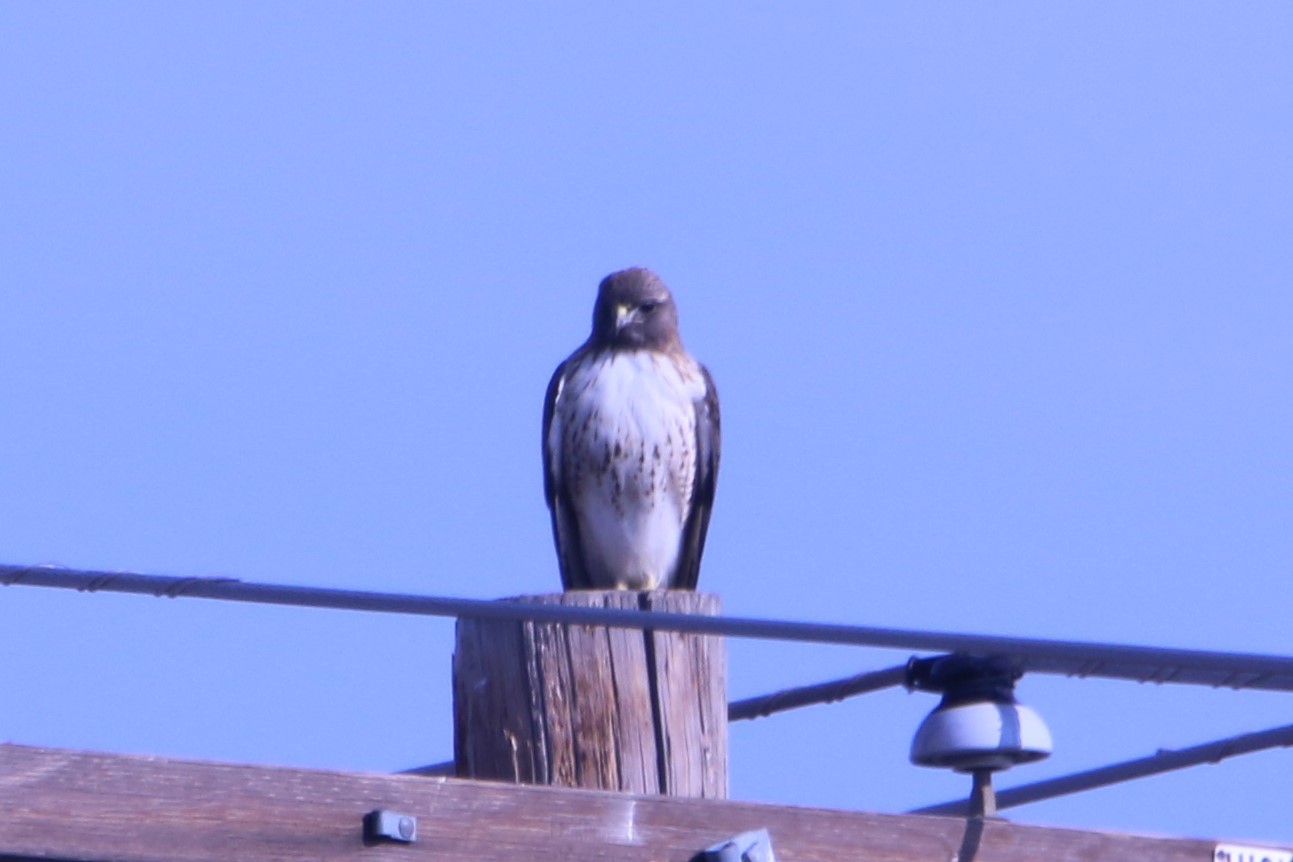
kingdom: Animalia
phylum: Chordata
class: Aves
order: Accipitriformes
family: Accipitridae
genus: Buteo
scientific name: Buteo jamaicensis
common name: Red-tailed hawk
